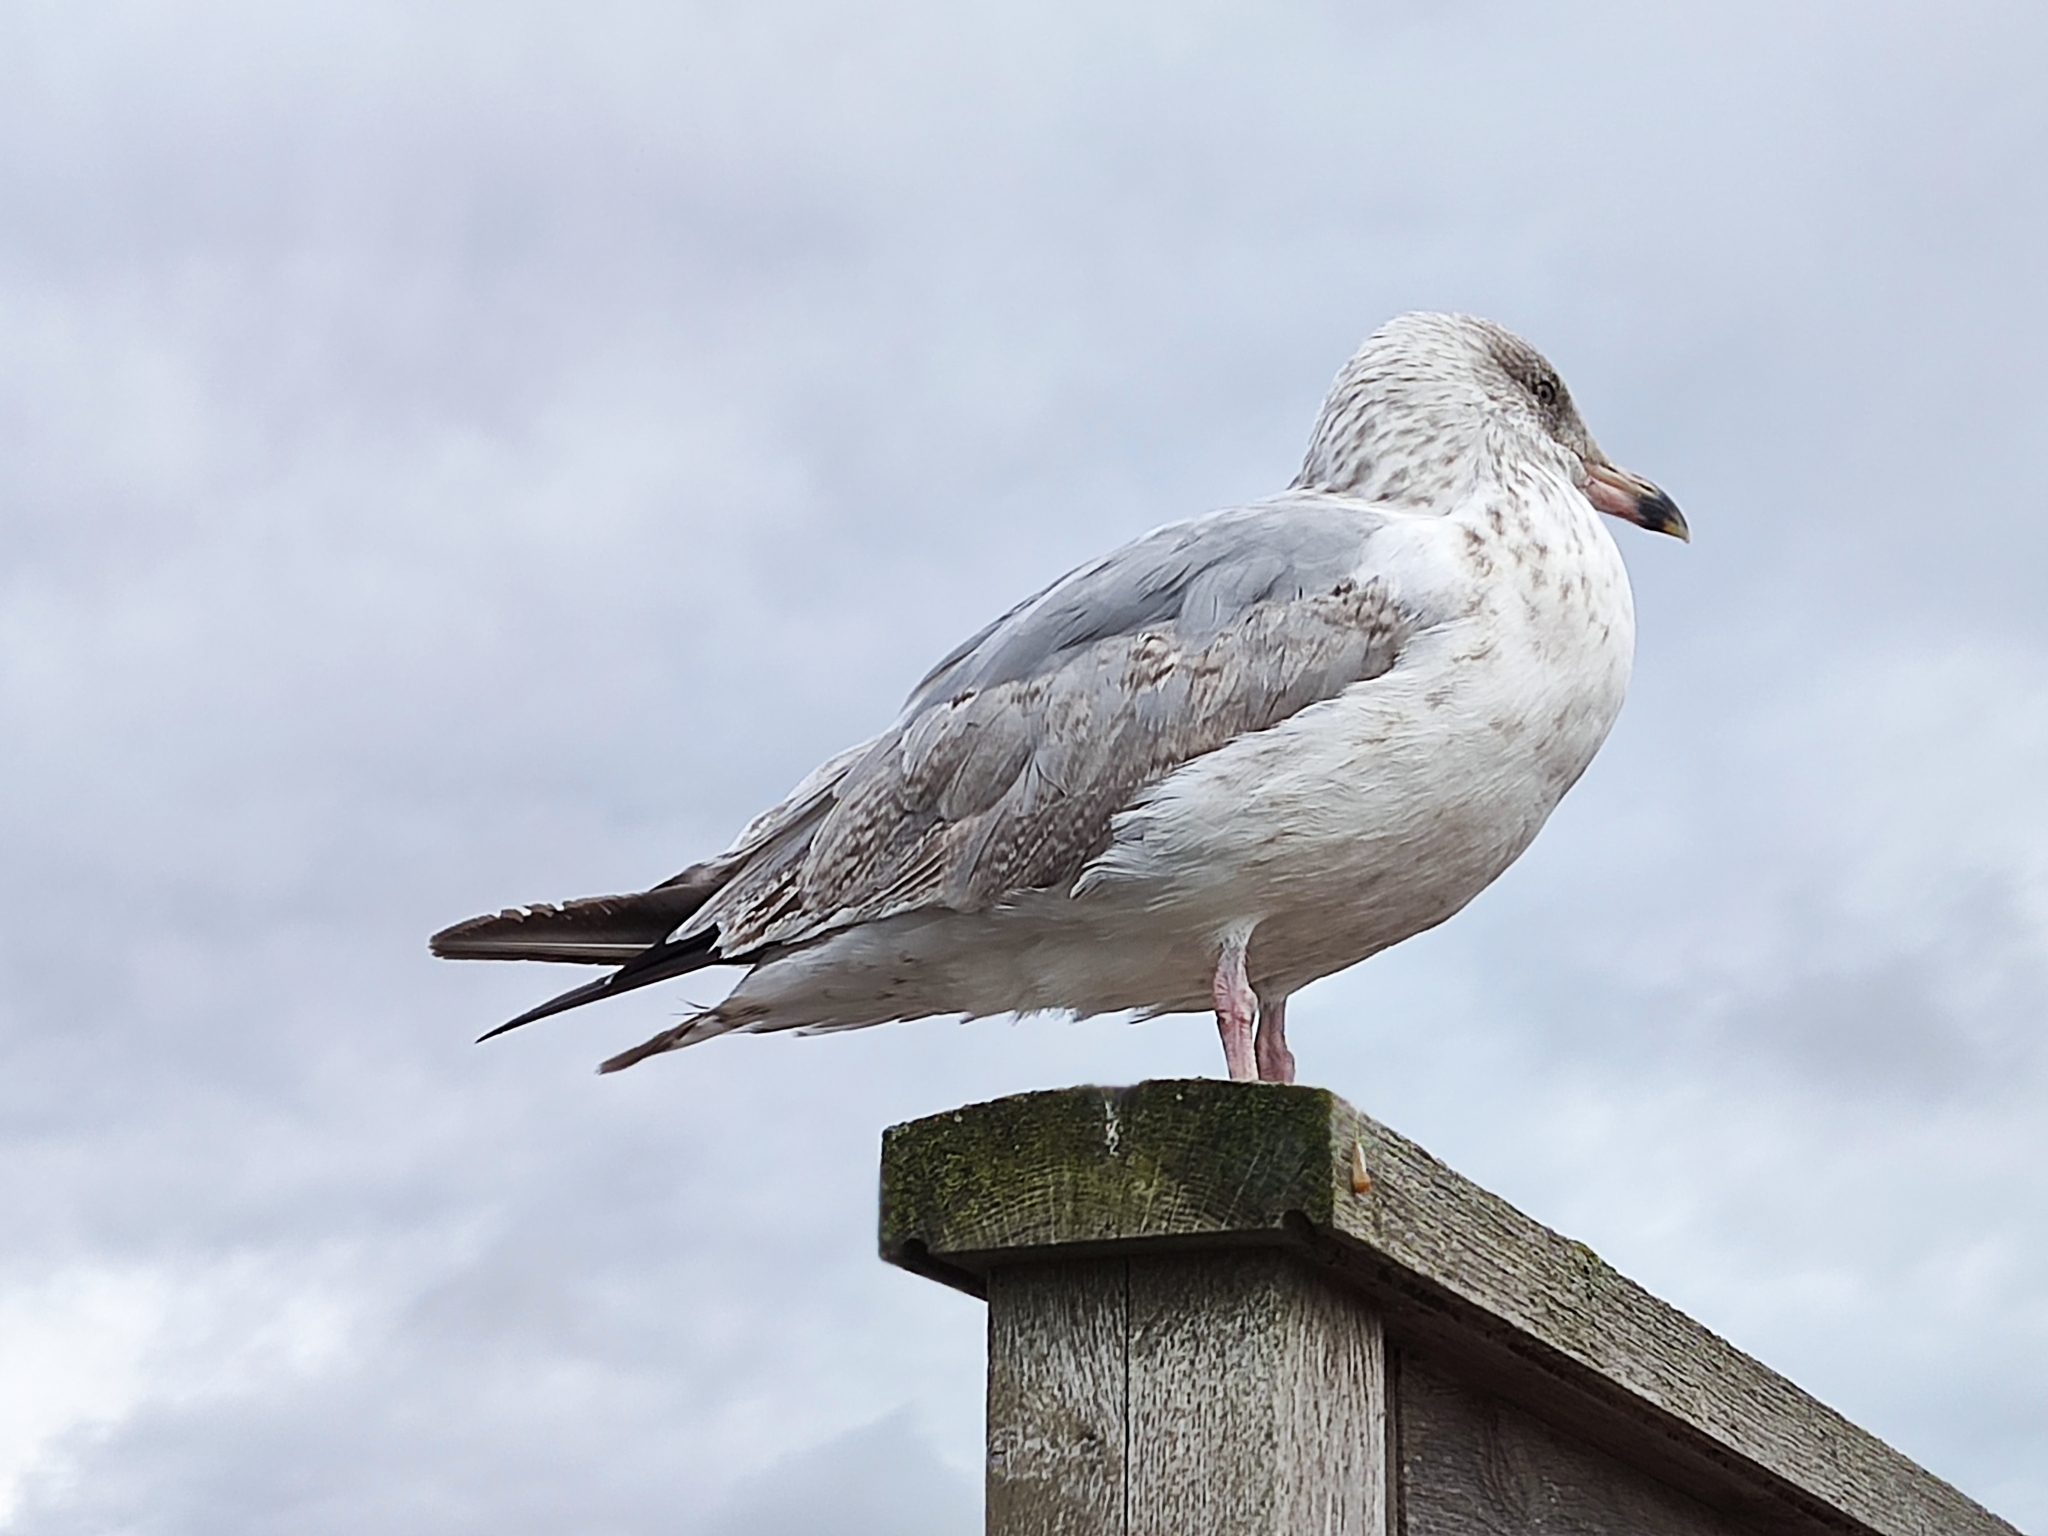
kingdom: Animalia
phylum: Chordata
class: Aves
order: Charadriiformes
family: Laridae
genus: Larus
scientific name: Larus argentatus
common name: Herring gull
